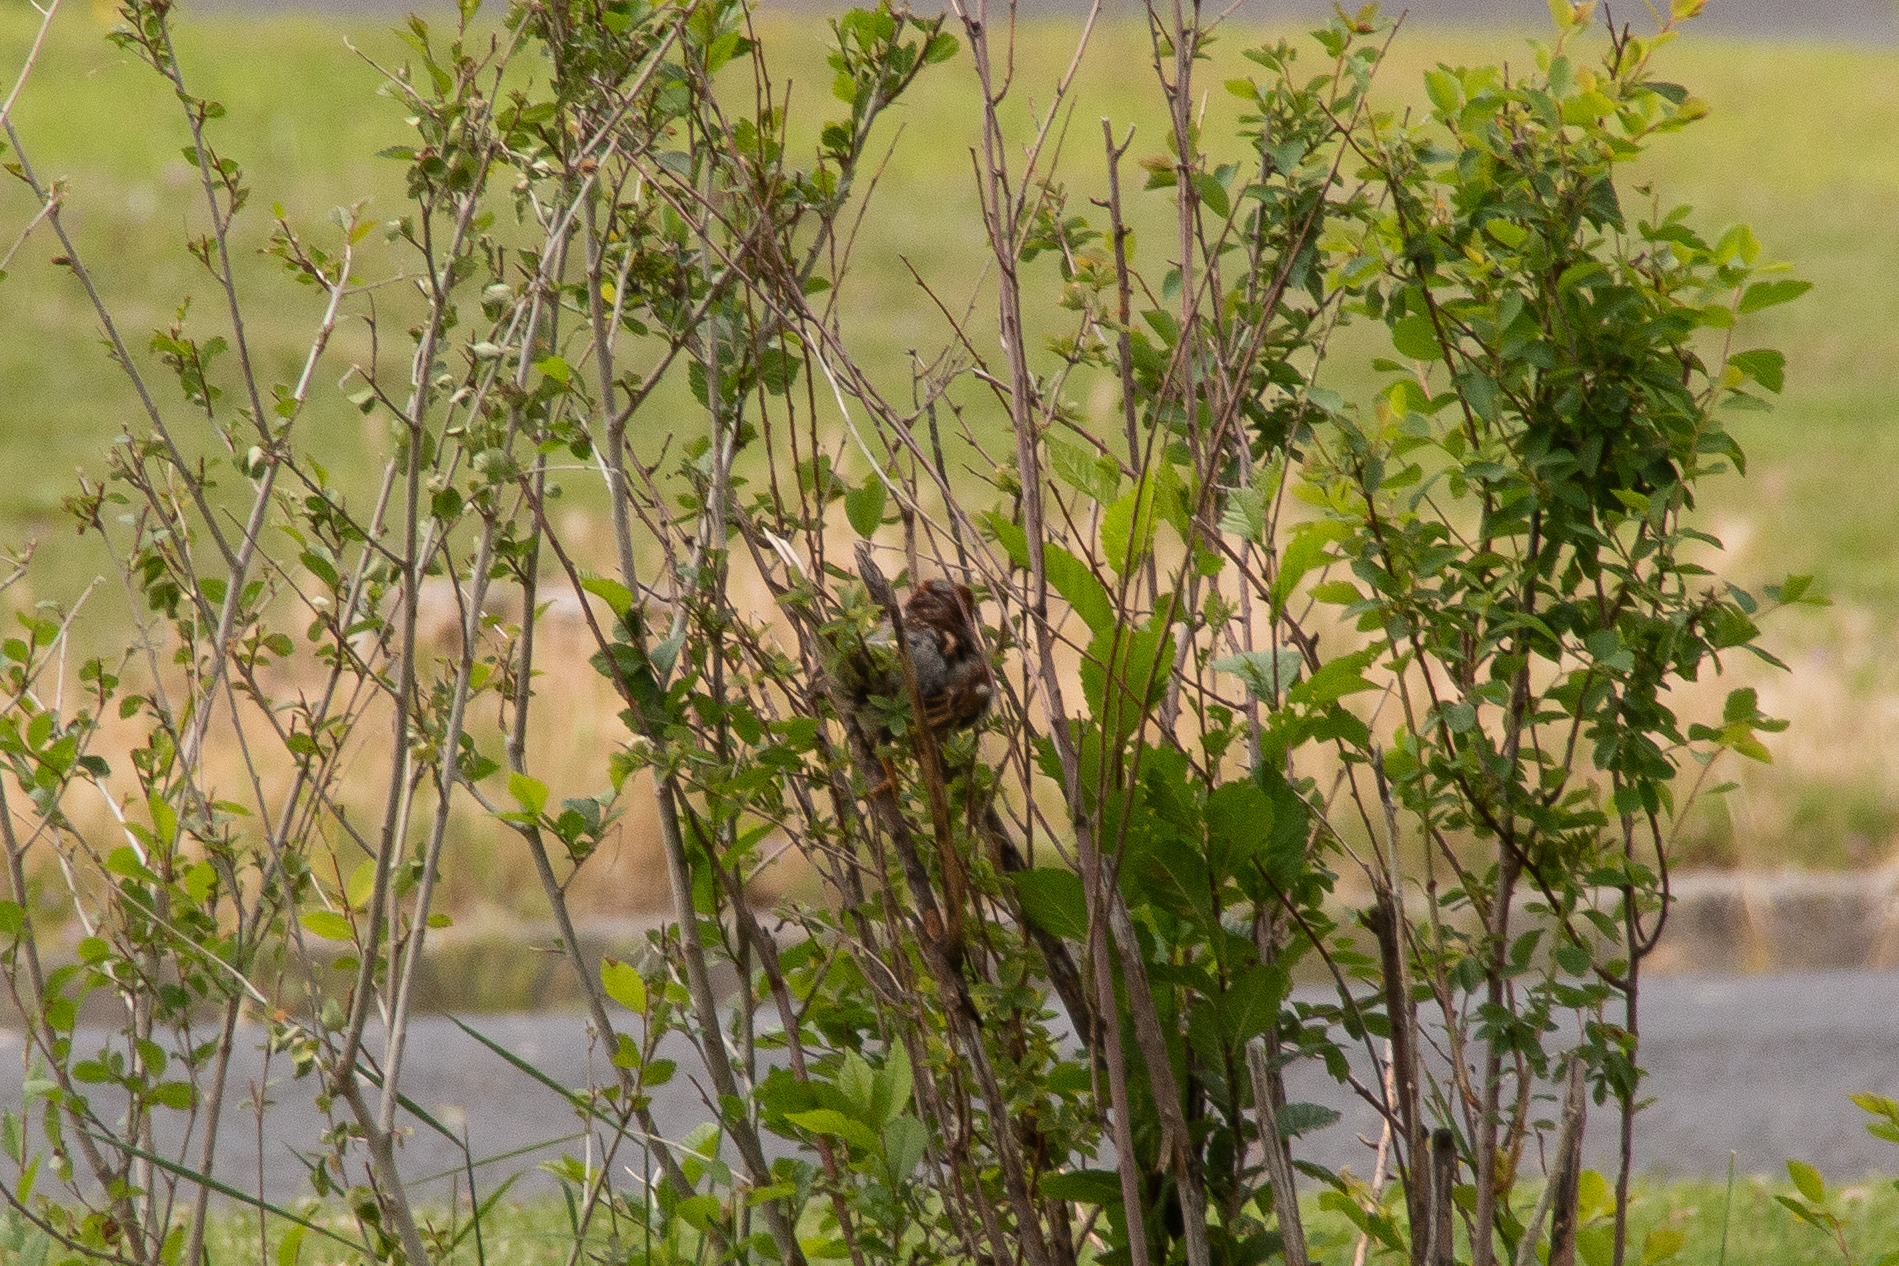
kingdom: Animalia
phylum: Chordata
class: Aves
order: Passeriformes
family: Passeridae
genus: Passer
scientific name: Passer domesticus
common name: House sparrow
